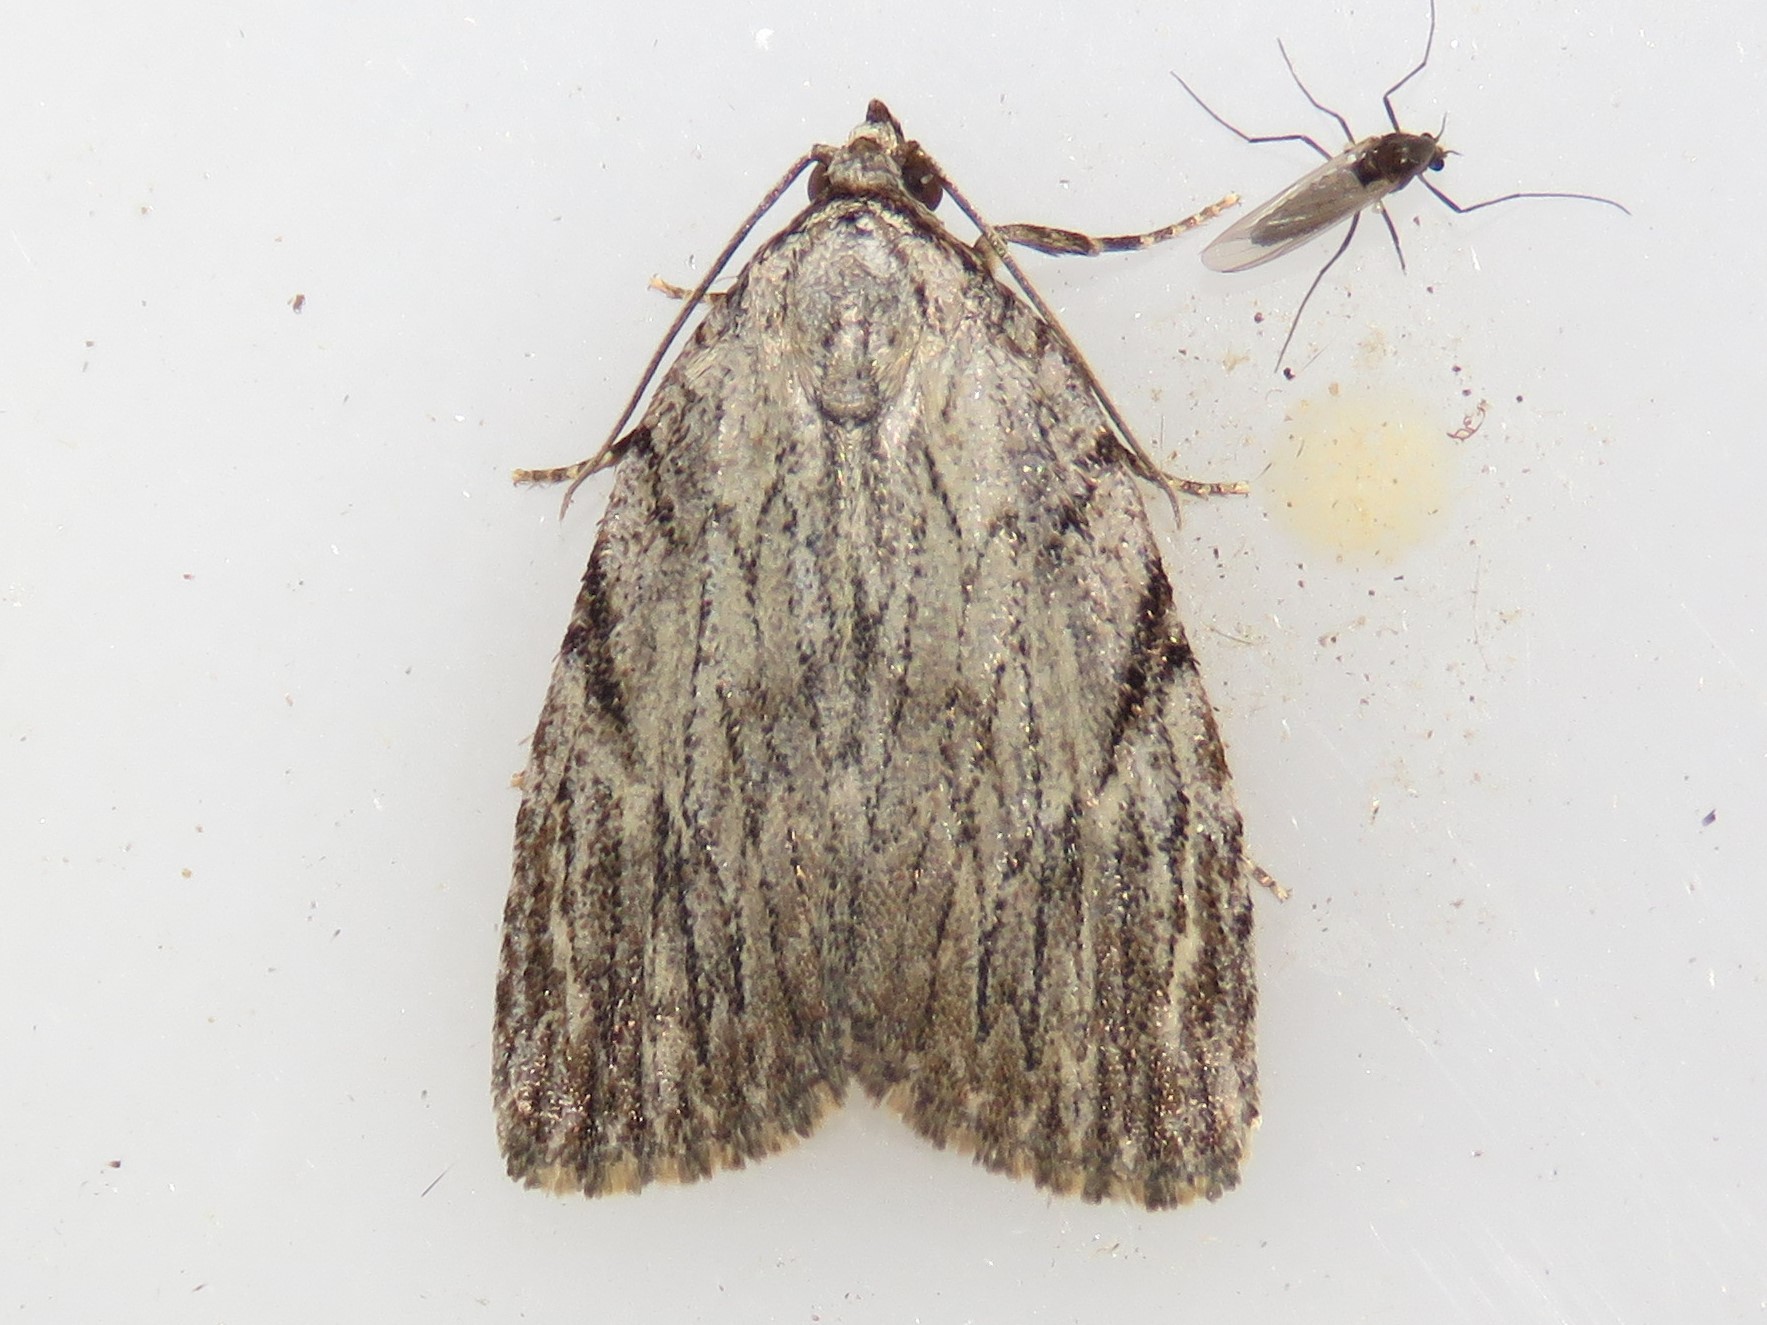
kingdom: Animalia
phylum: Arthropoda
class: Insecta
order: Lepidoptera
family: Noctuidae
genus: Balsa
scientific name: Balsa tristrigella
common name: Three-lined balsa moth
